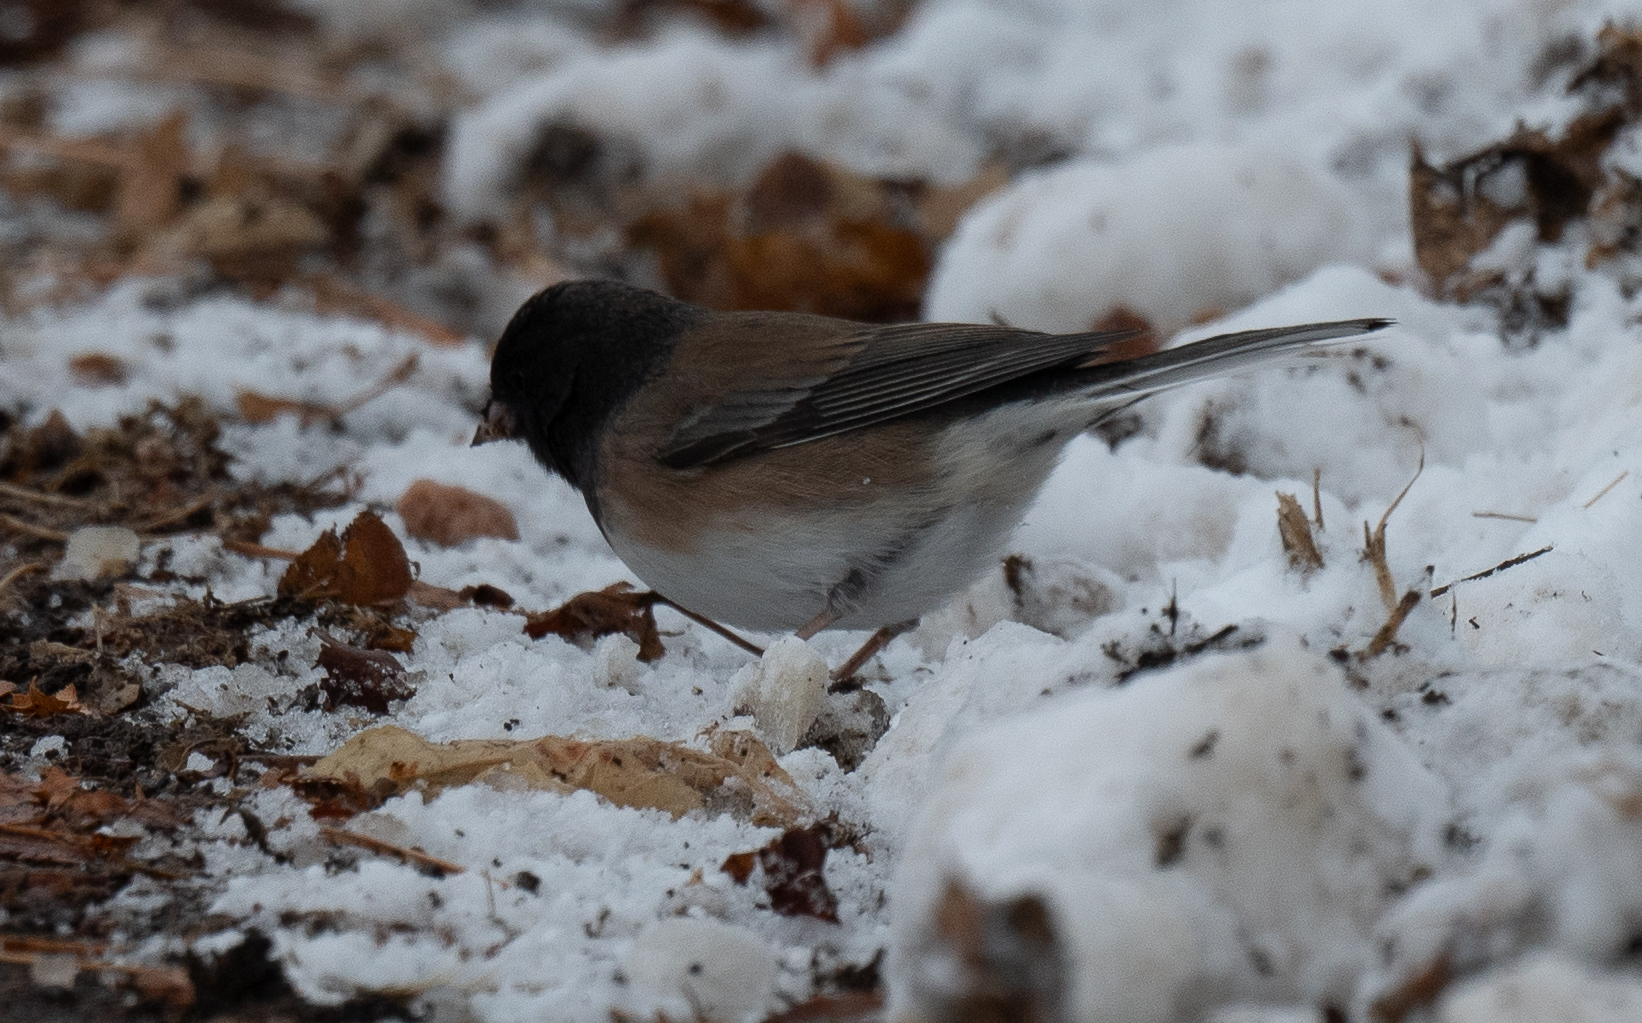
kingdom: Animalia
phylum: Chordata
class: Aves
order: Passeriformes
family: Passerellidae
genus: Junco
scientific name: Junco hyemalis
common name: Dark-eyed junco
